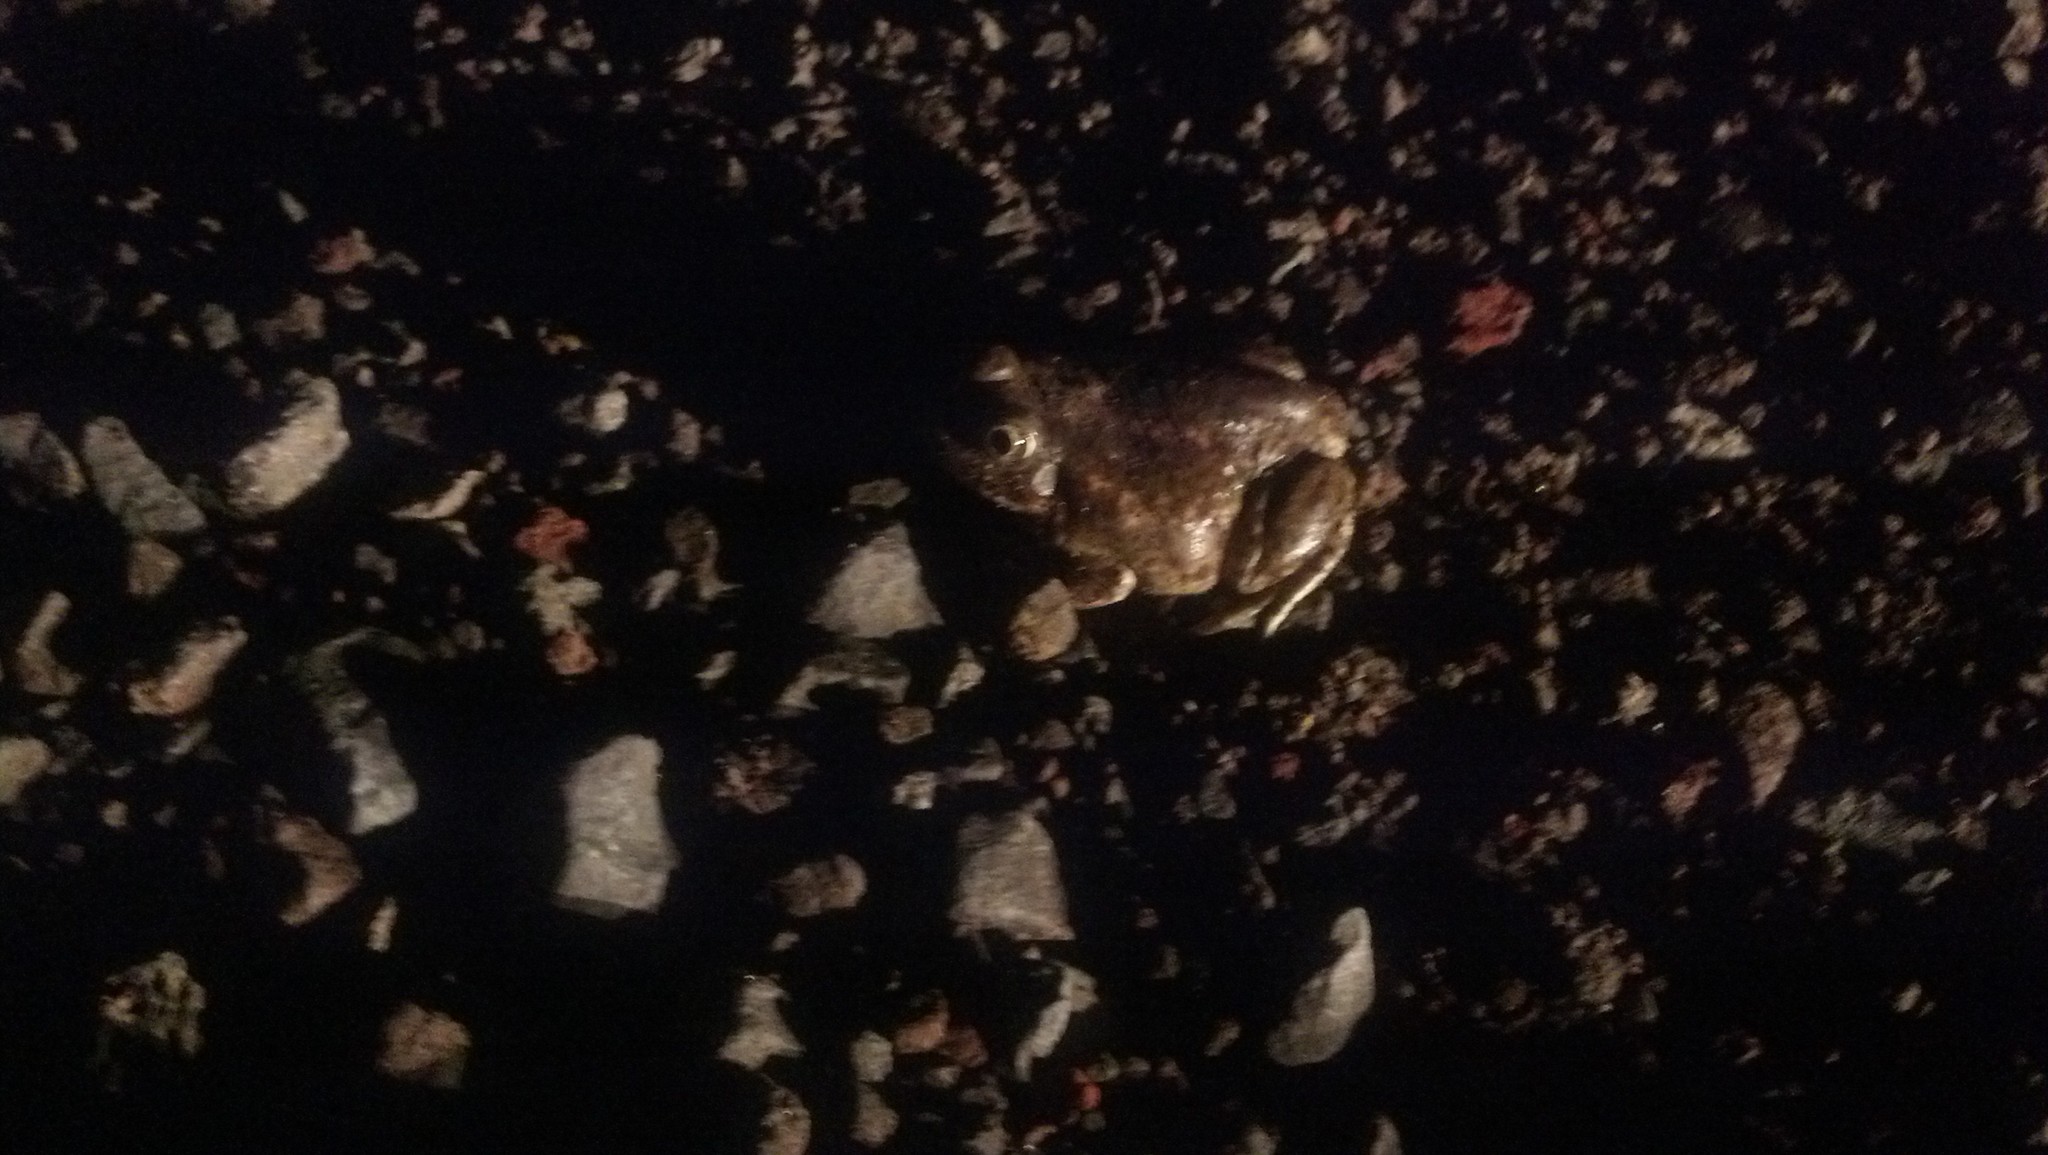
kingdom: Animalia
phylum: Chordata
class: Amphibia
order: Anura
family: Scaphiopodidae
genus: Spea
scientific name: Spea intermontana
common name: Great basin spadefoot
